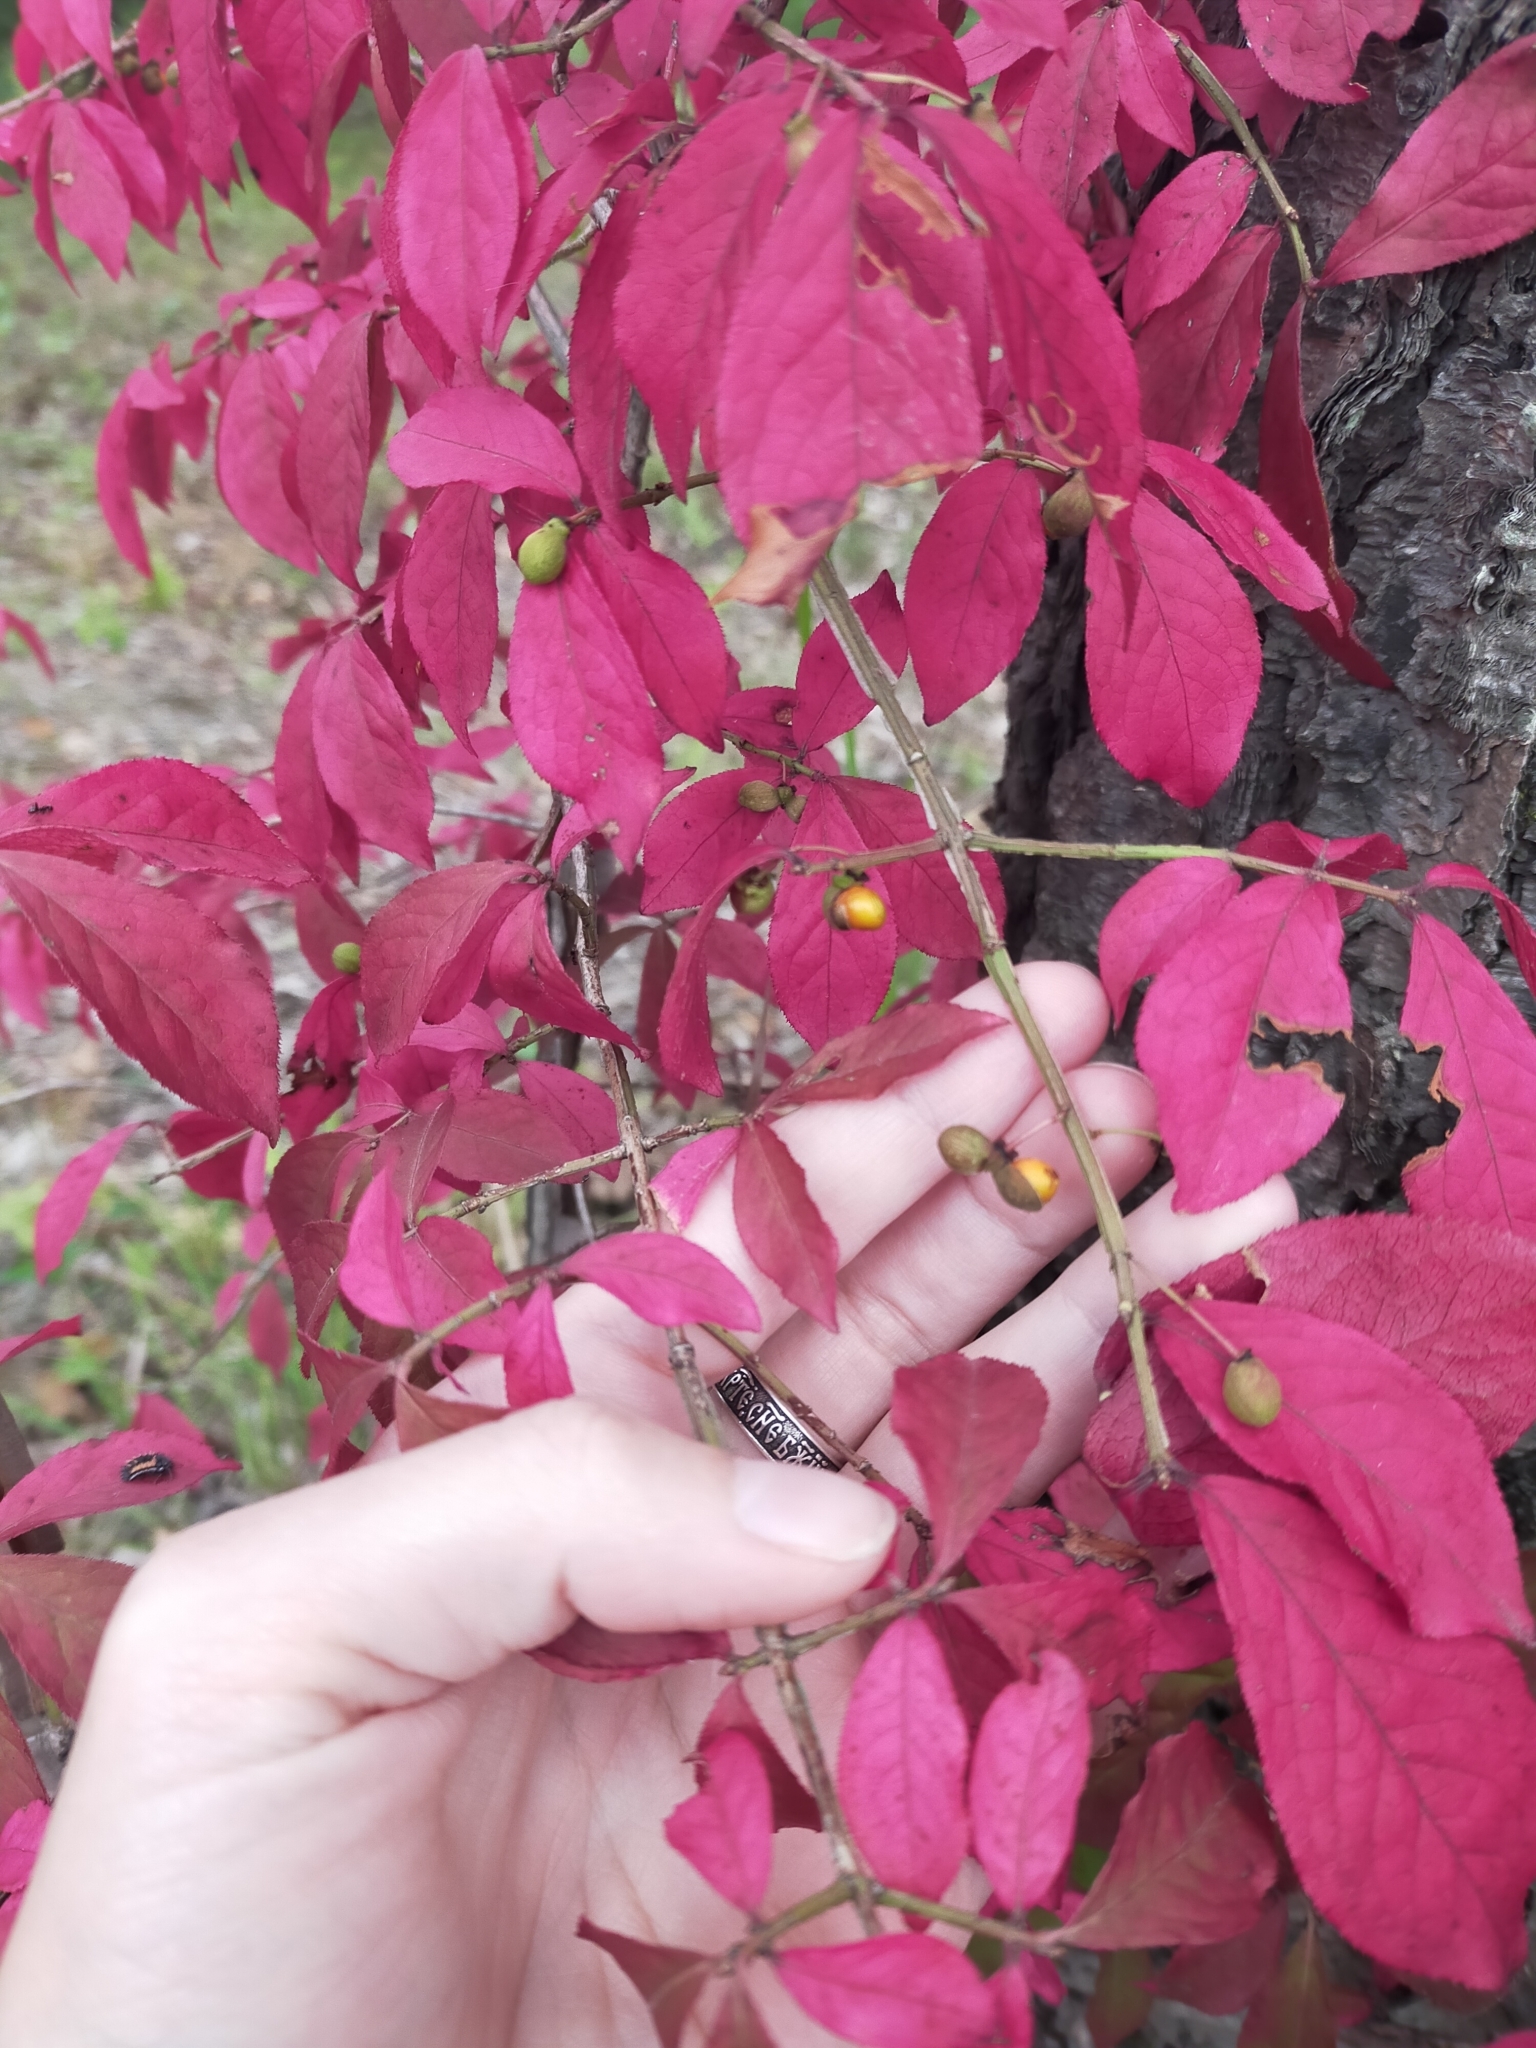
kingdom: Plantae
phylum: Tracheophyta
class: Magnoliopsida
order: Celastrales
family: Celastraceae
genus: Euonymus
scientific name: Euonymus alatus
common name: Winged euonymus
